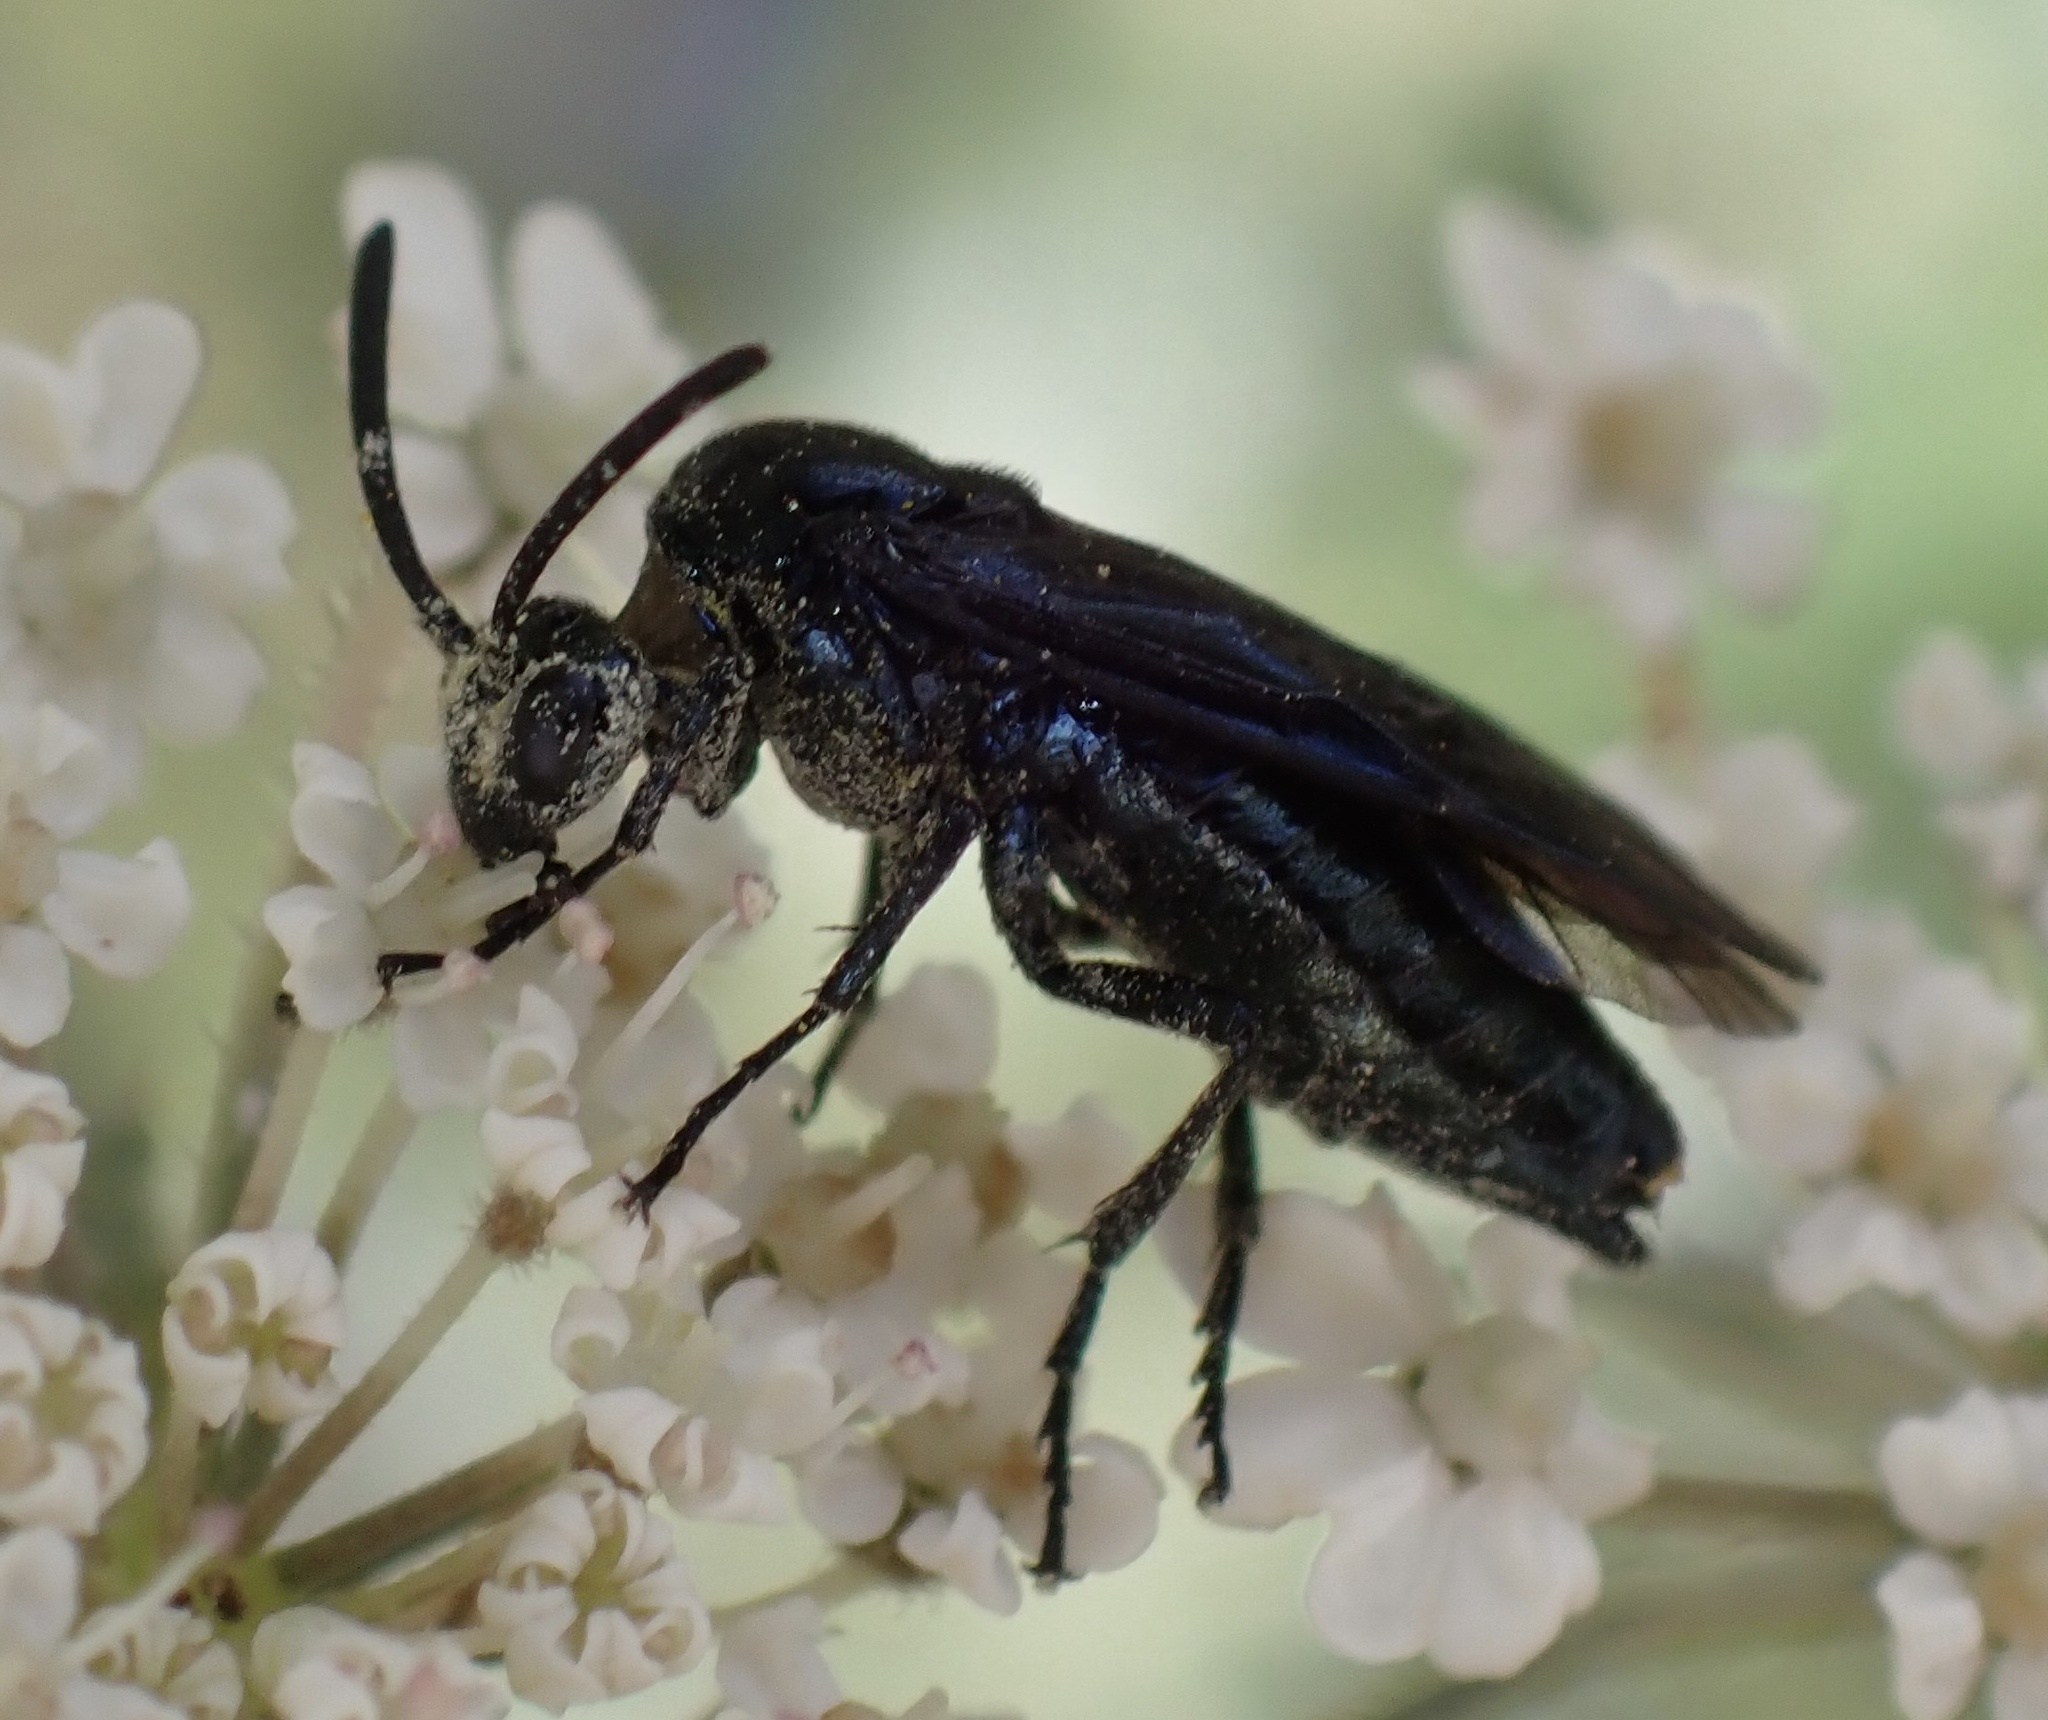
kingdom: Animalia
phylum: Arthropoda
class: Insecta
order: Hymenoptera
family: Argidae
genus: Arge
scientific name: Arge berberidis
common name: Berberis sawfly
